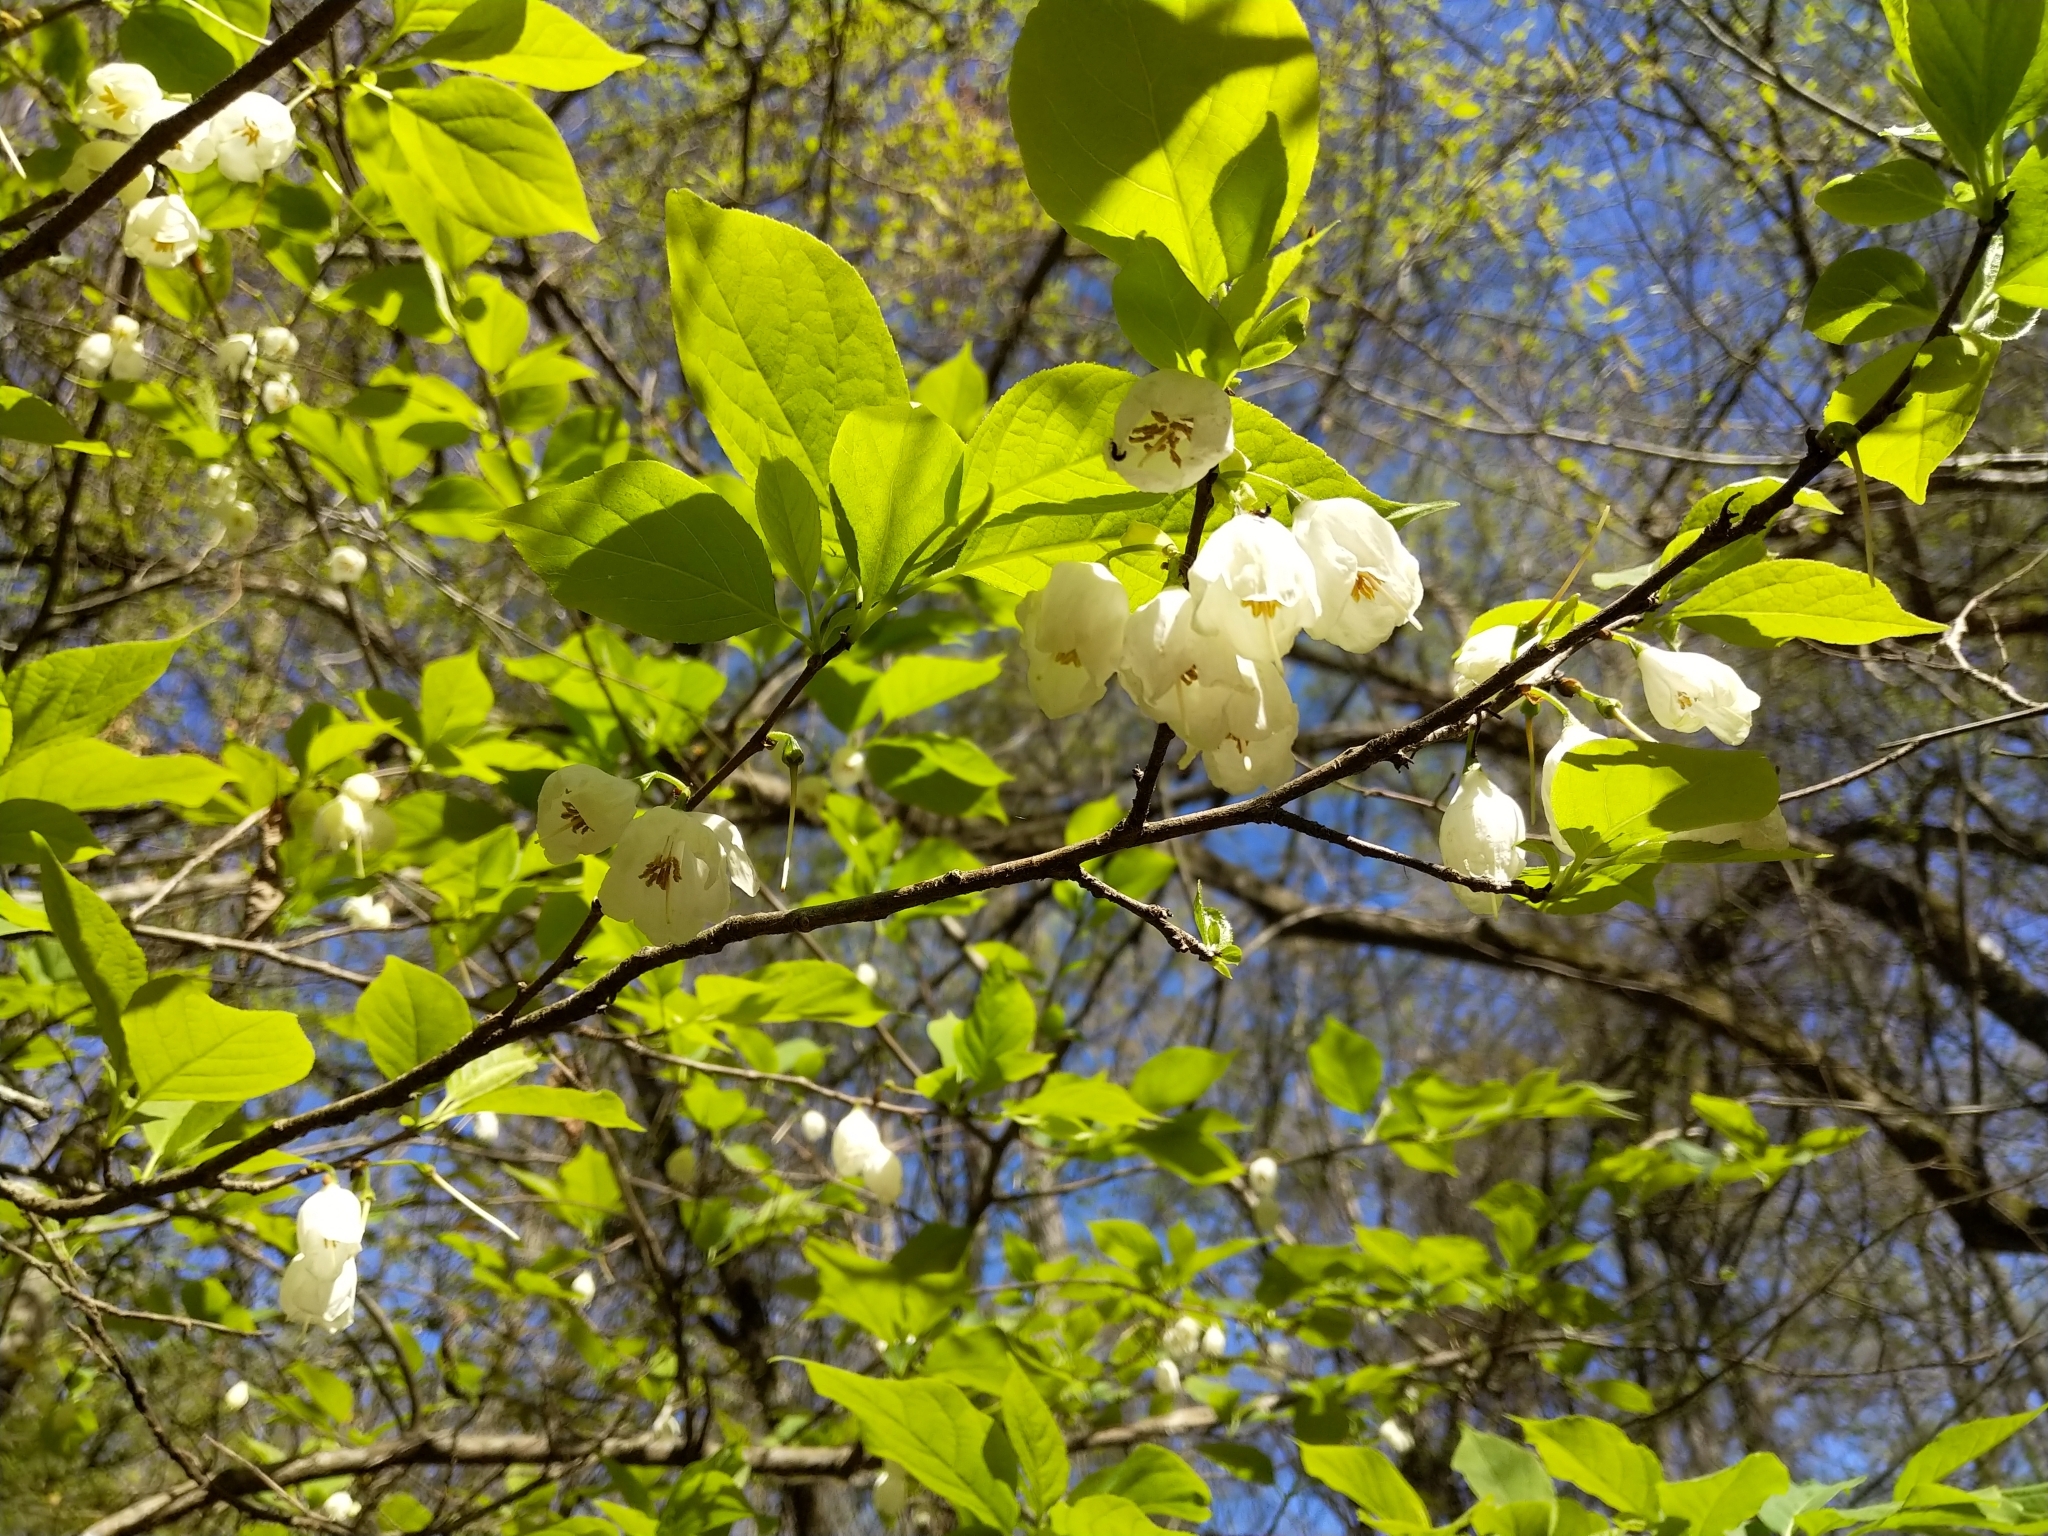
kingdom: Plantae
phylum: Tracheophyta
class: Magnoliopsida
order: Ericales
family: Styracaceae
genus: Halesia
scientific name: Halesia tetraptera
